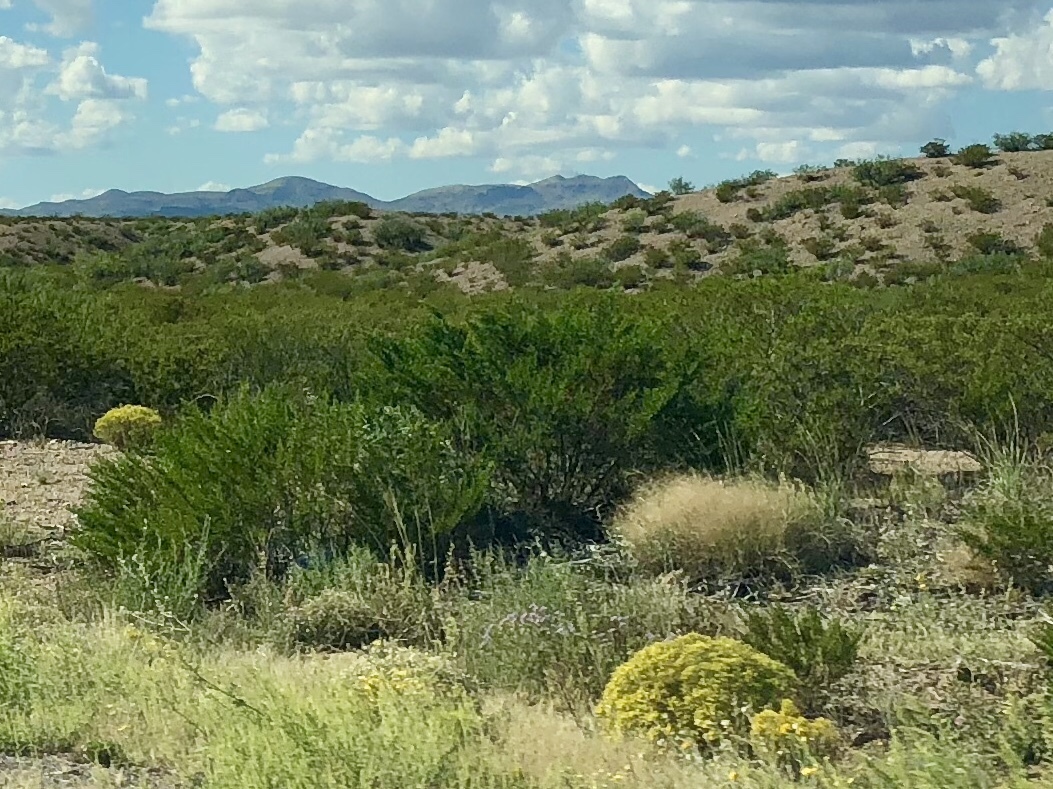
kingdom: Plantae
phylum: Tracheophyta
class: Magnoliopsida
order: Zygophyllales
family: Zygophyllaceae
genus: Larrea
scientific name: Larrea tridentata
